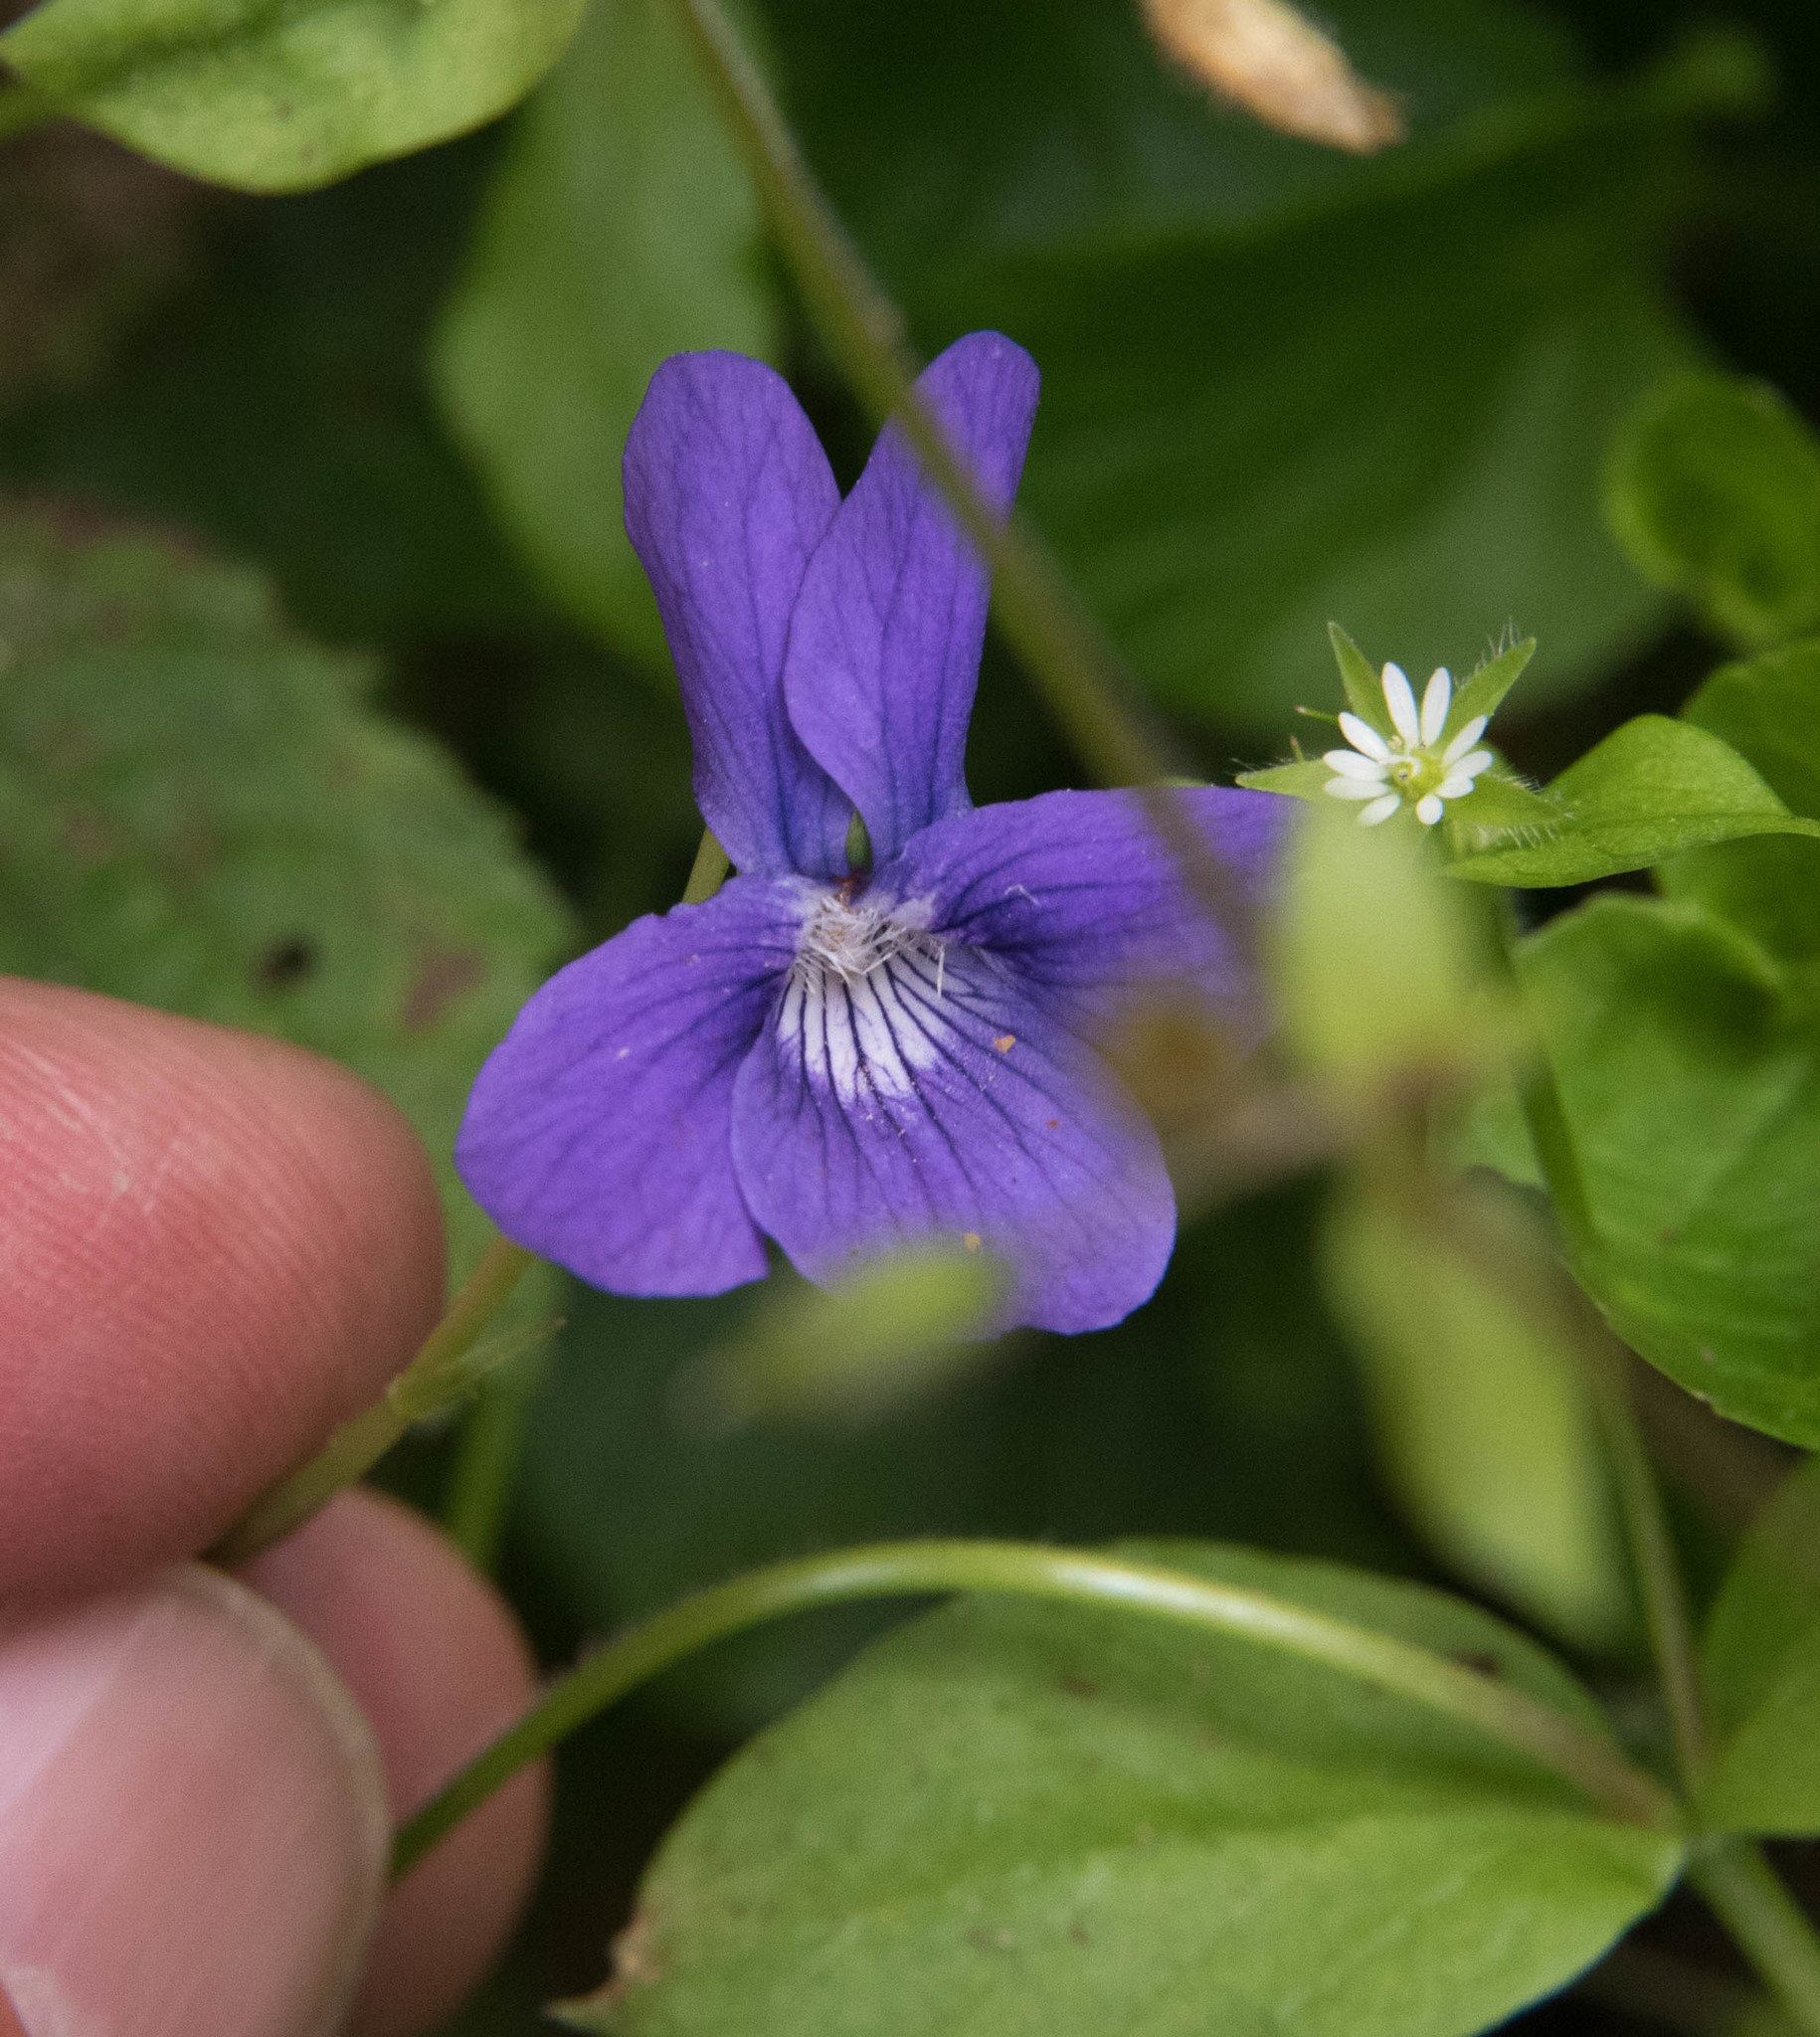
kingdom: Plantae
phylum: Tracheophyta
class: Magnoliopsida
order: Malpighiales
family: Violaceae
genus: Viola
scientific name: Viola adunca
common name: Sand violet
